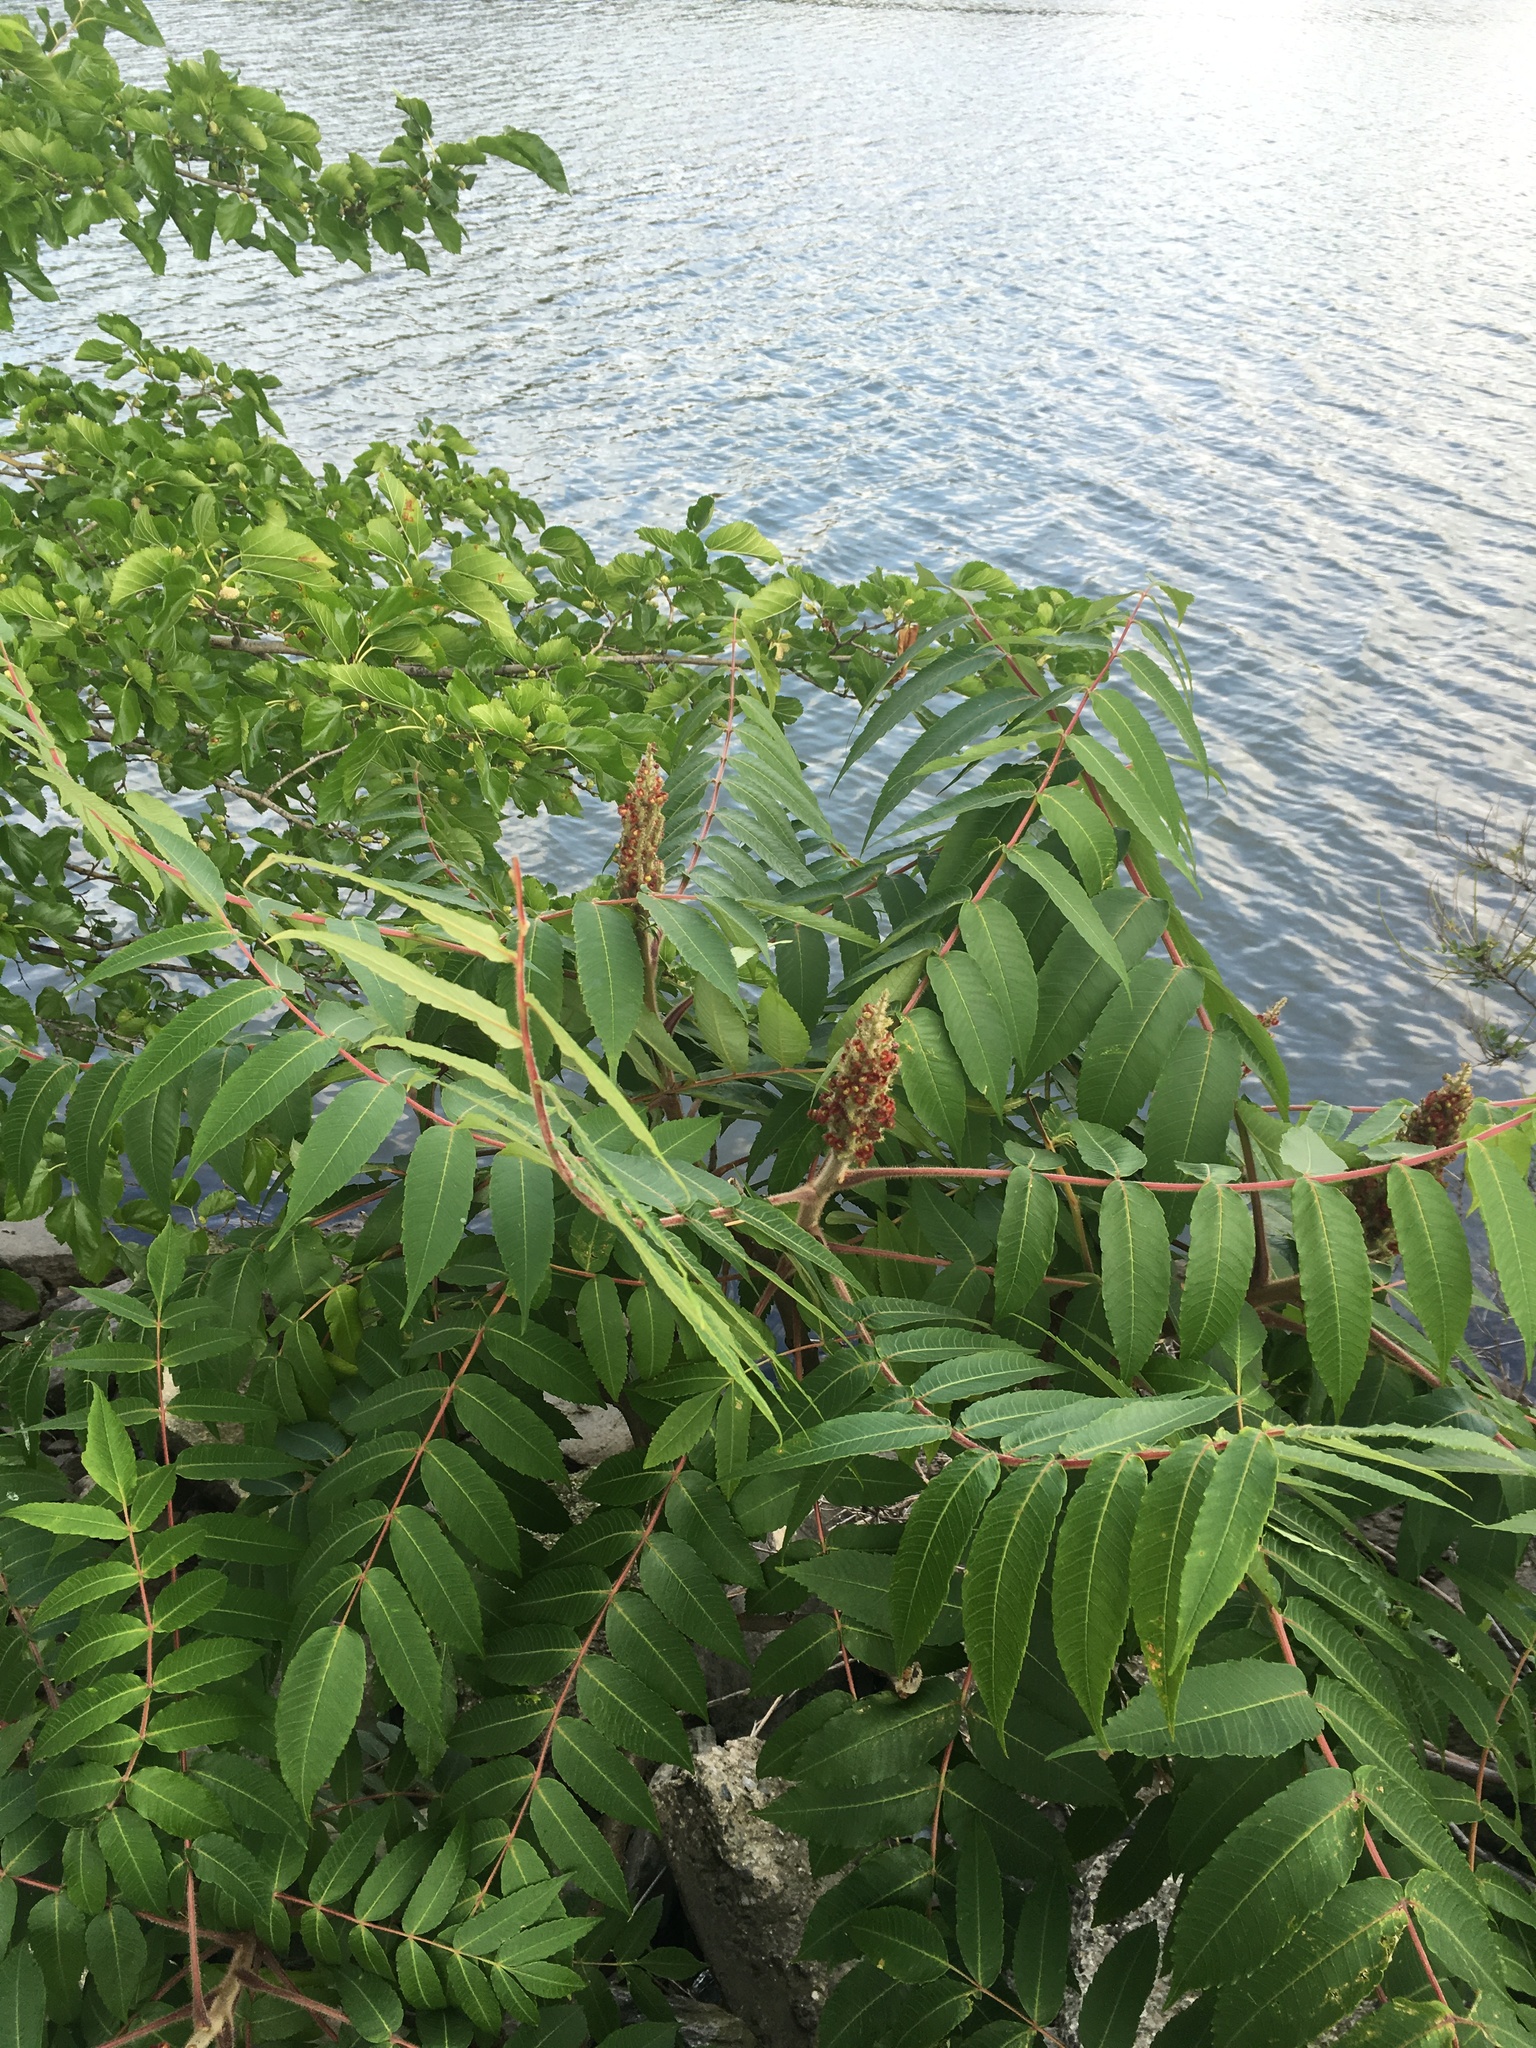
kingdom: Plantae
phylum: Tracheophyta
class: Magnoliopsida
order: Sapindales
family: Anacardiaceae
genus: Rhus
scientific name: Rhus typhina
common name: Staghorn sumac
